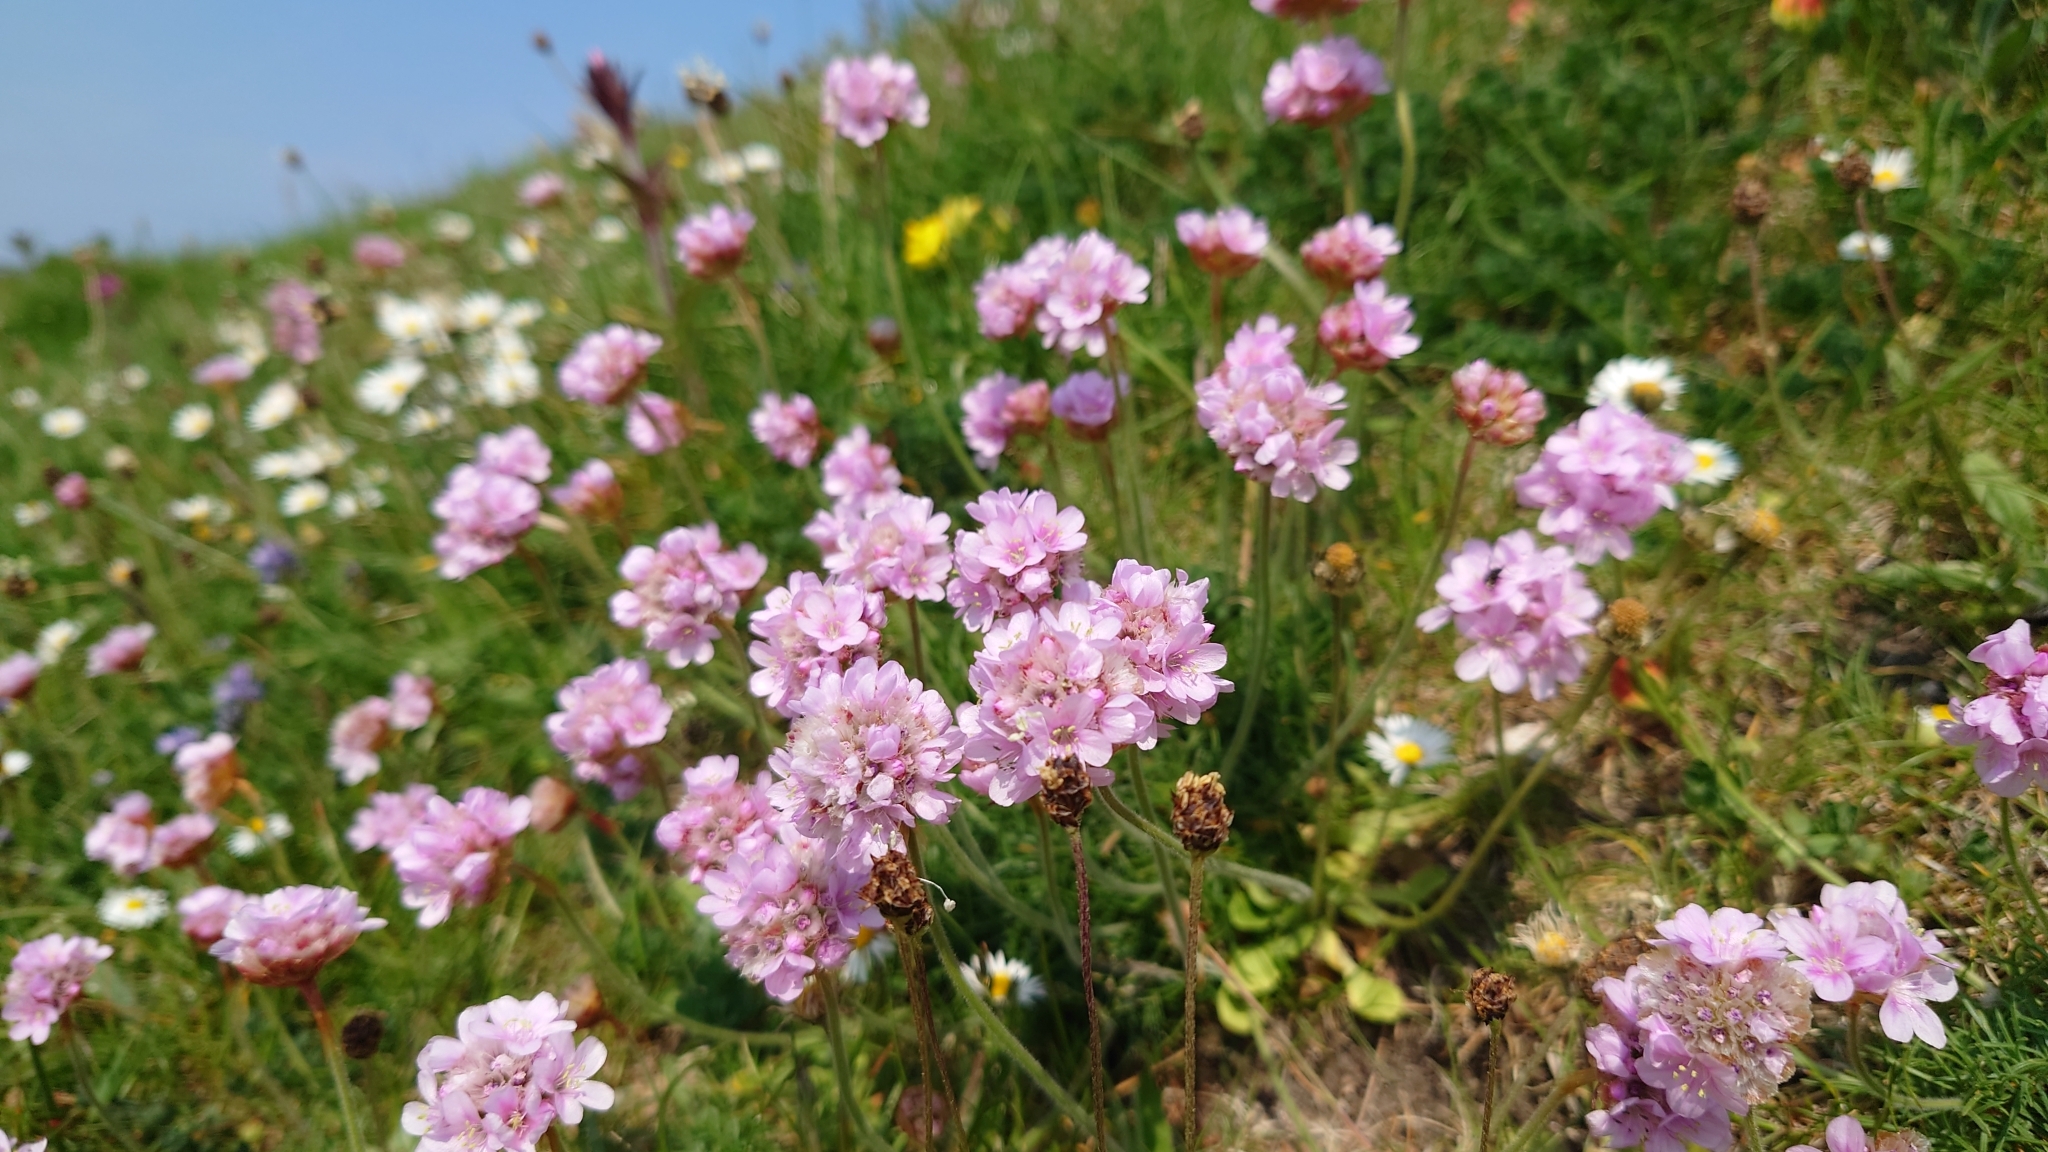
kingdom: Plantae
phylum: Tracheophyta
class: Magnoliopsida
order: Caryophyllales
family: Plumbaginaceae
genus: Armeria
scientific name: Armeria maritima
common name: Thrift
